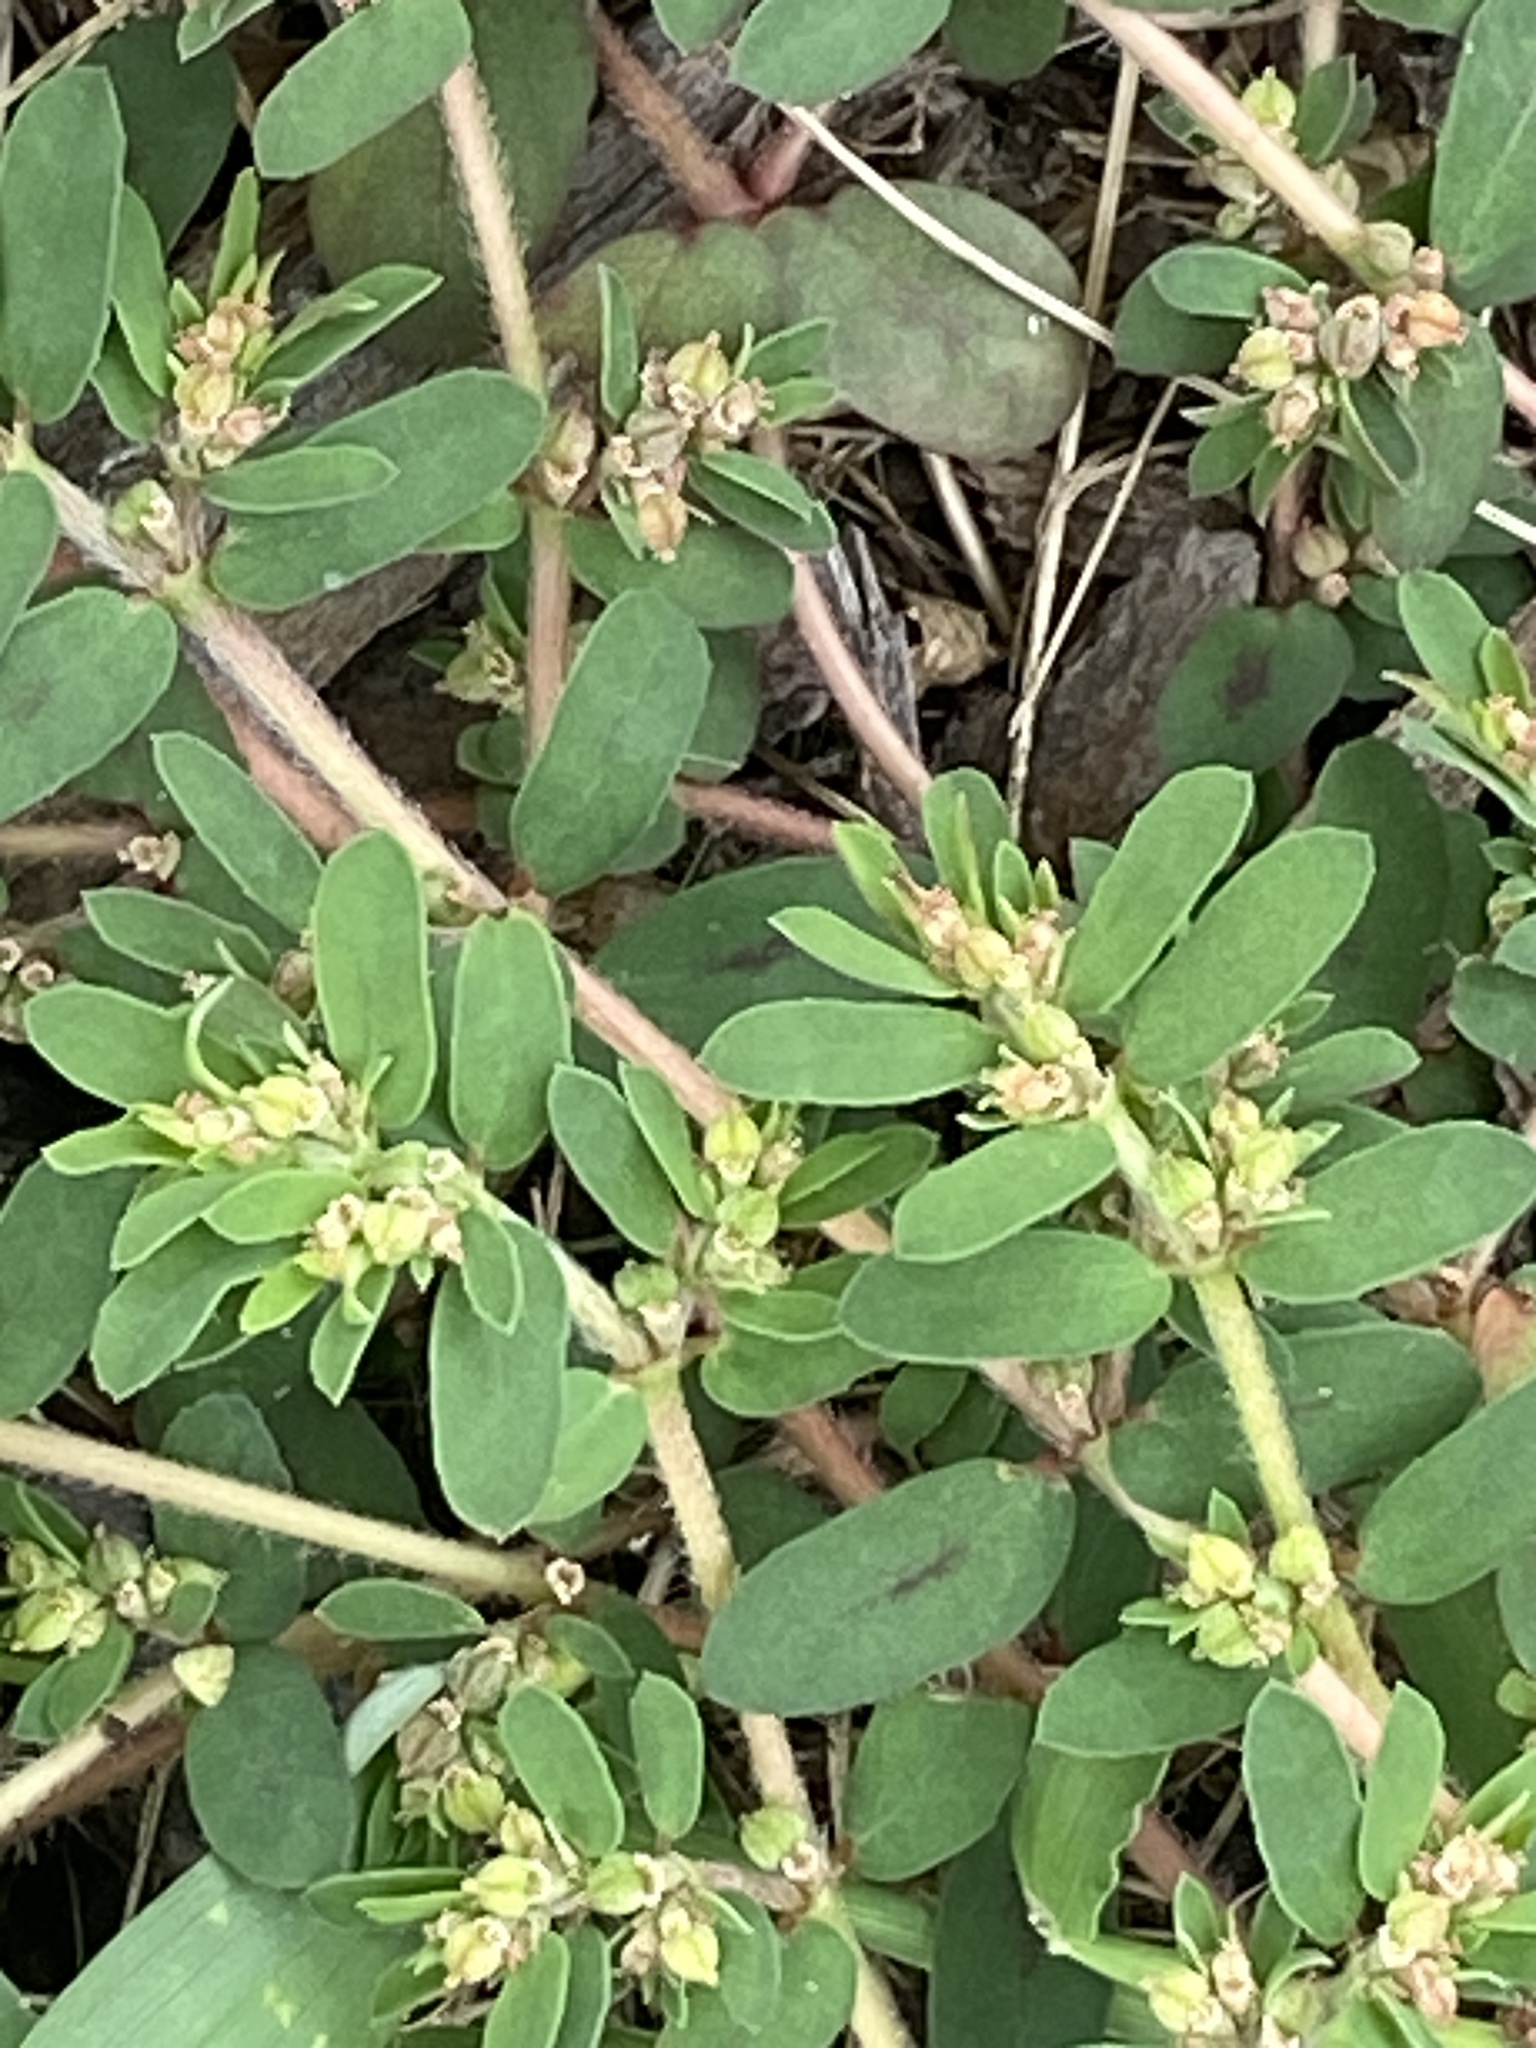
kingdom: Plantae
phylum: Tracheophyta
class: Magnoliopsida
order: Malpighiales
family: Euphorbiaceae
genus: Euphorbia
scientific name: Euphorbia maculata
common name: Spotted spurge
